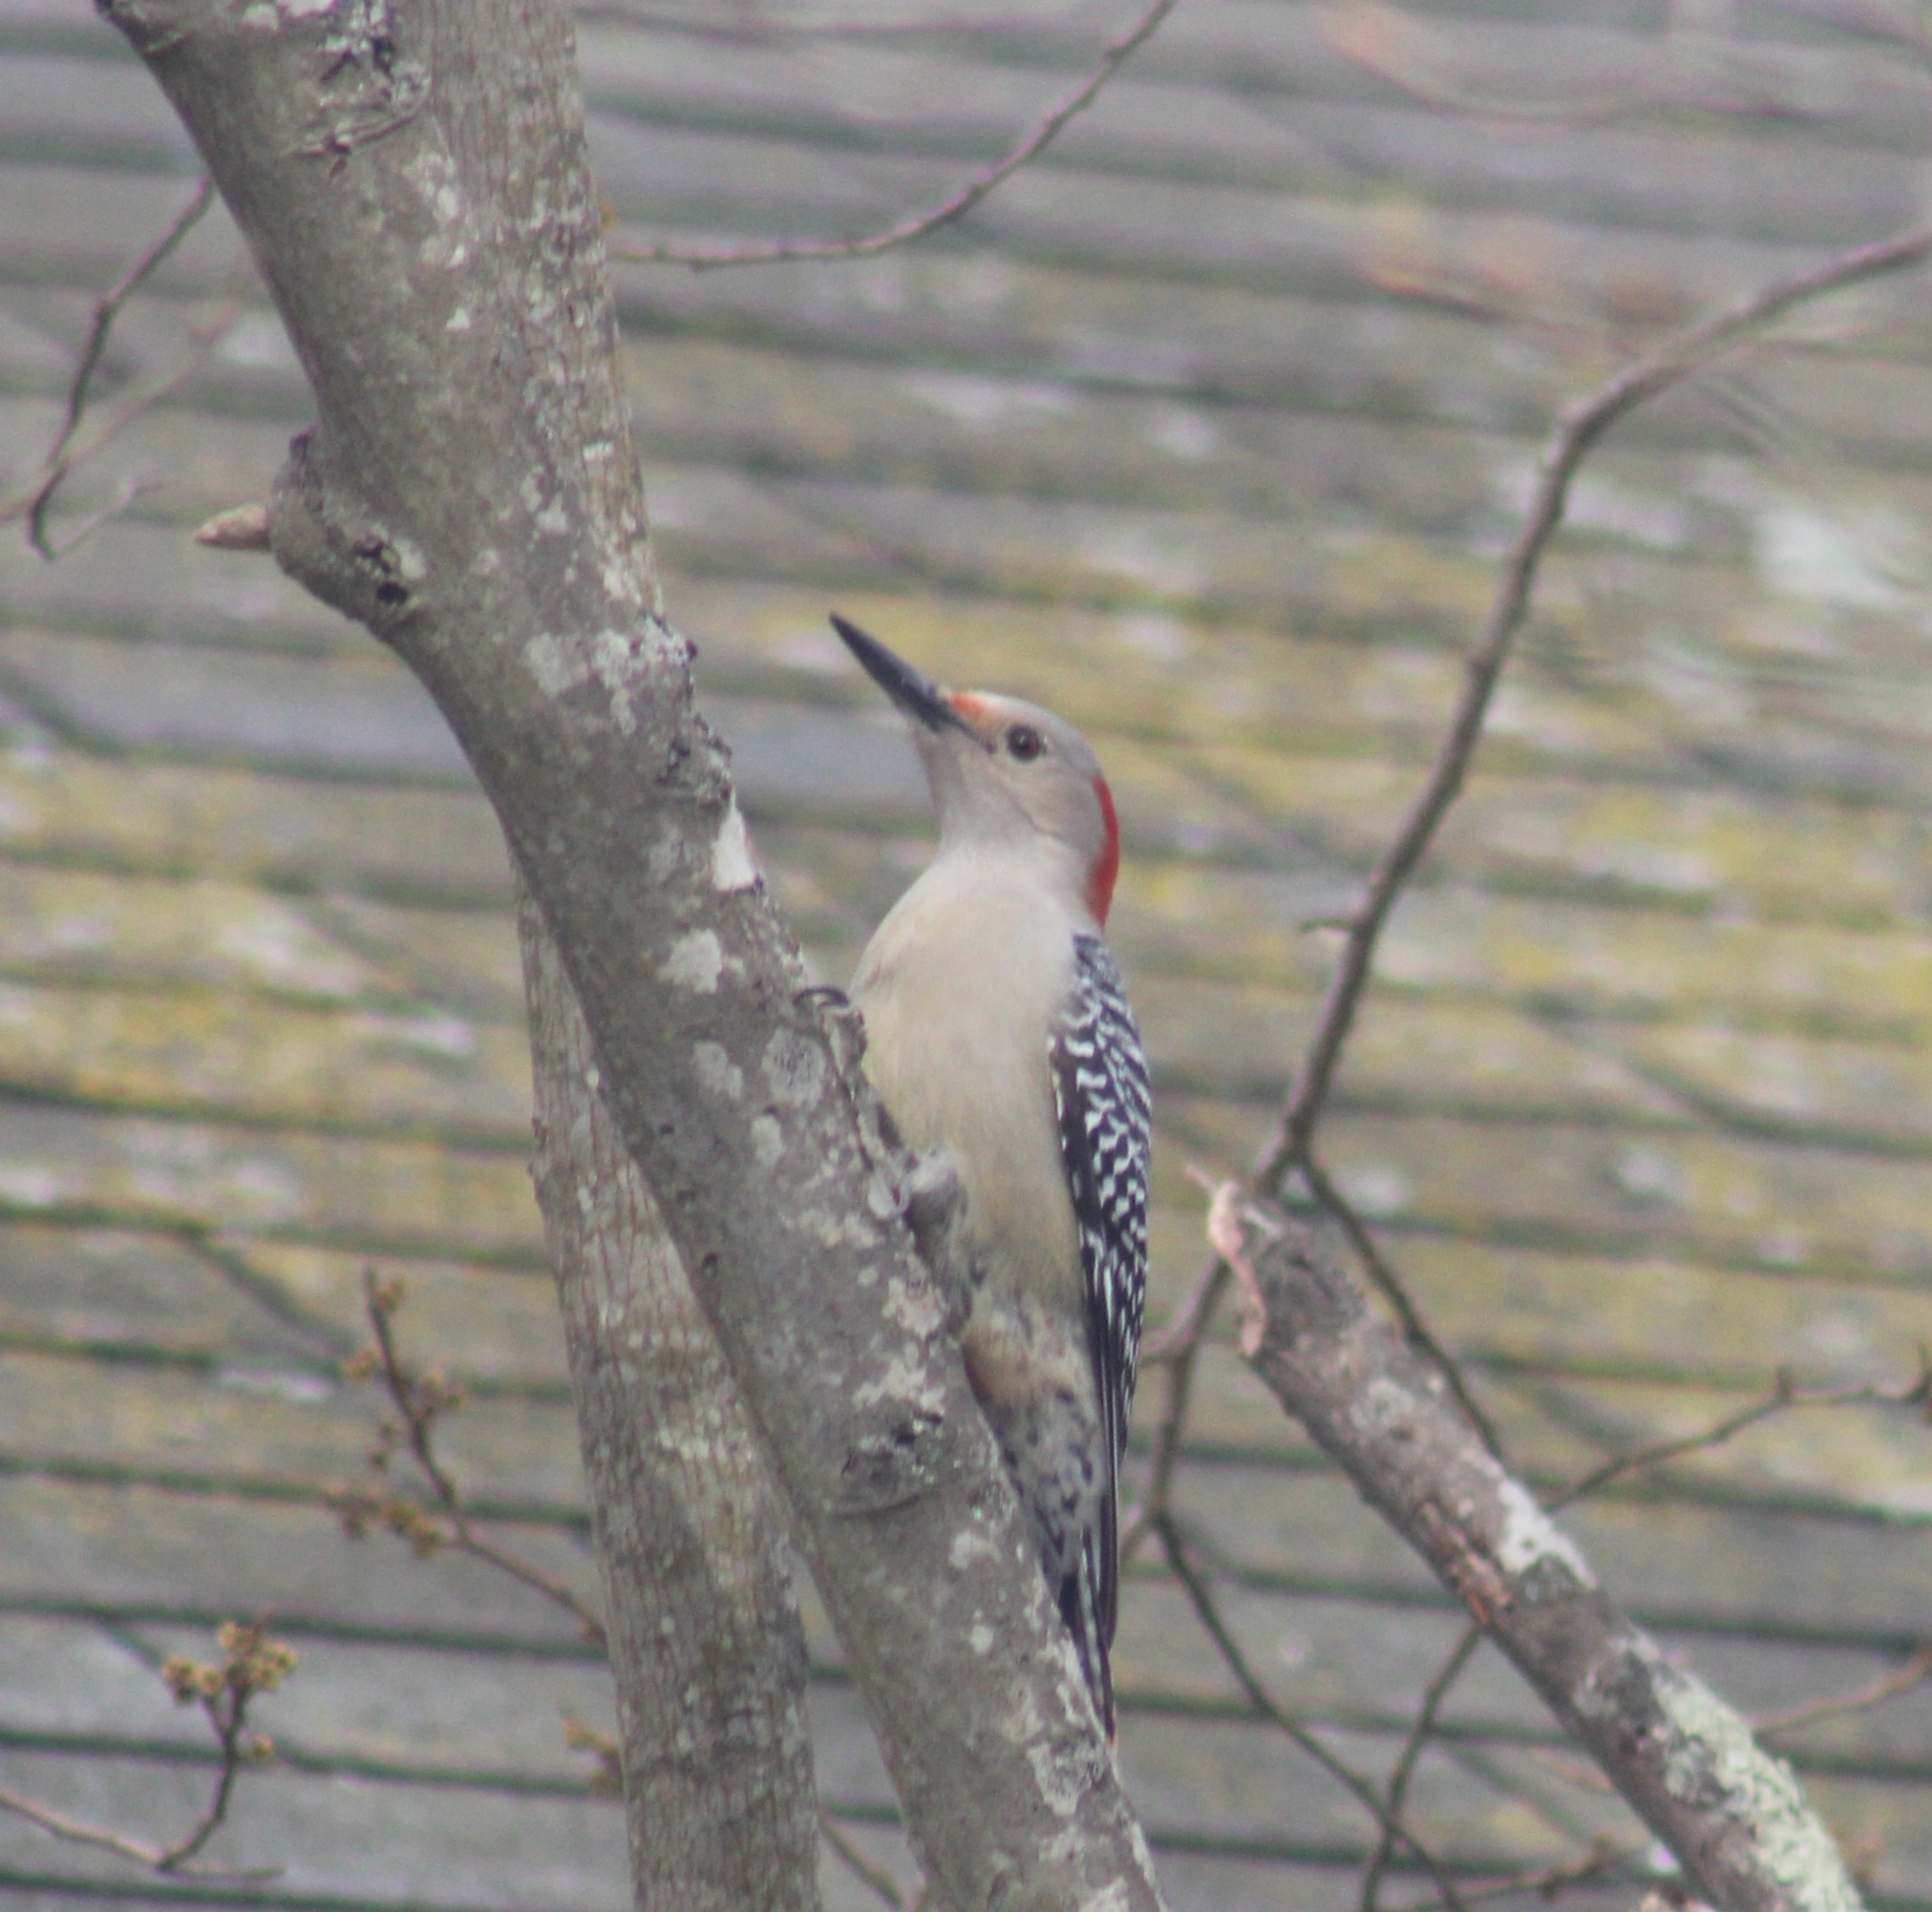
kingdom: Animalia
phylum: Chordata
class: Aves
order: Piciformes
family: Picidae
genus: Melanerpes
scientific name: Melanerpes carolinus
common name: Red-bellied woodpecker
